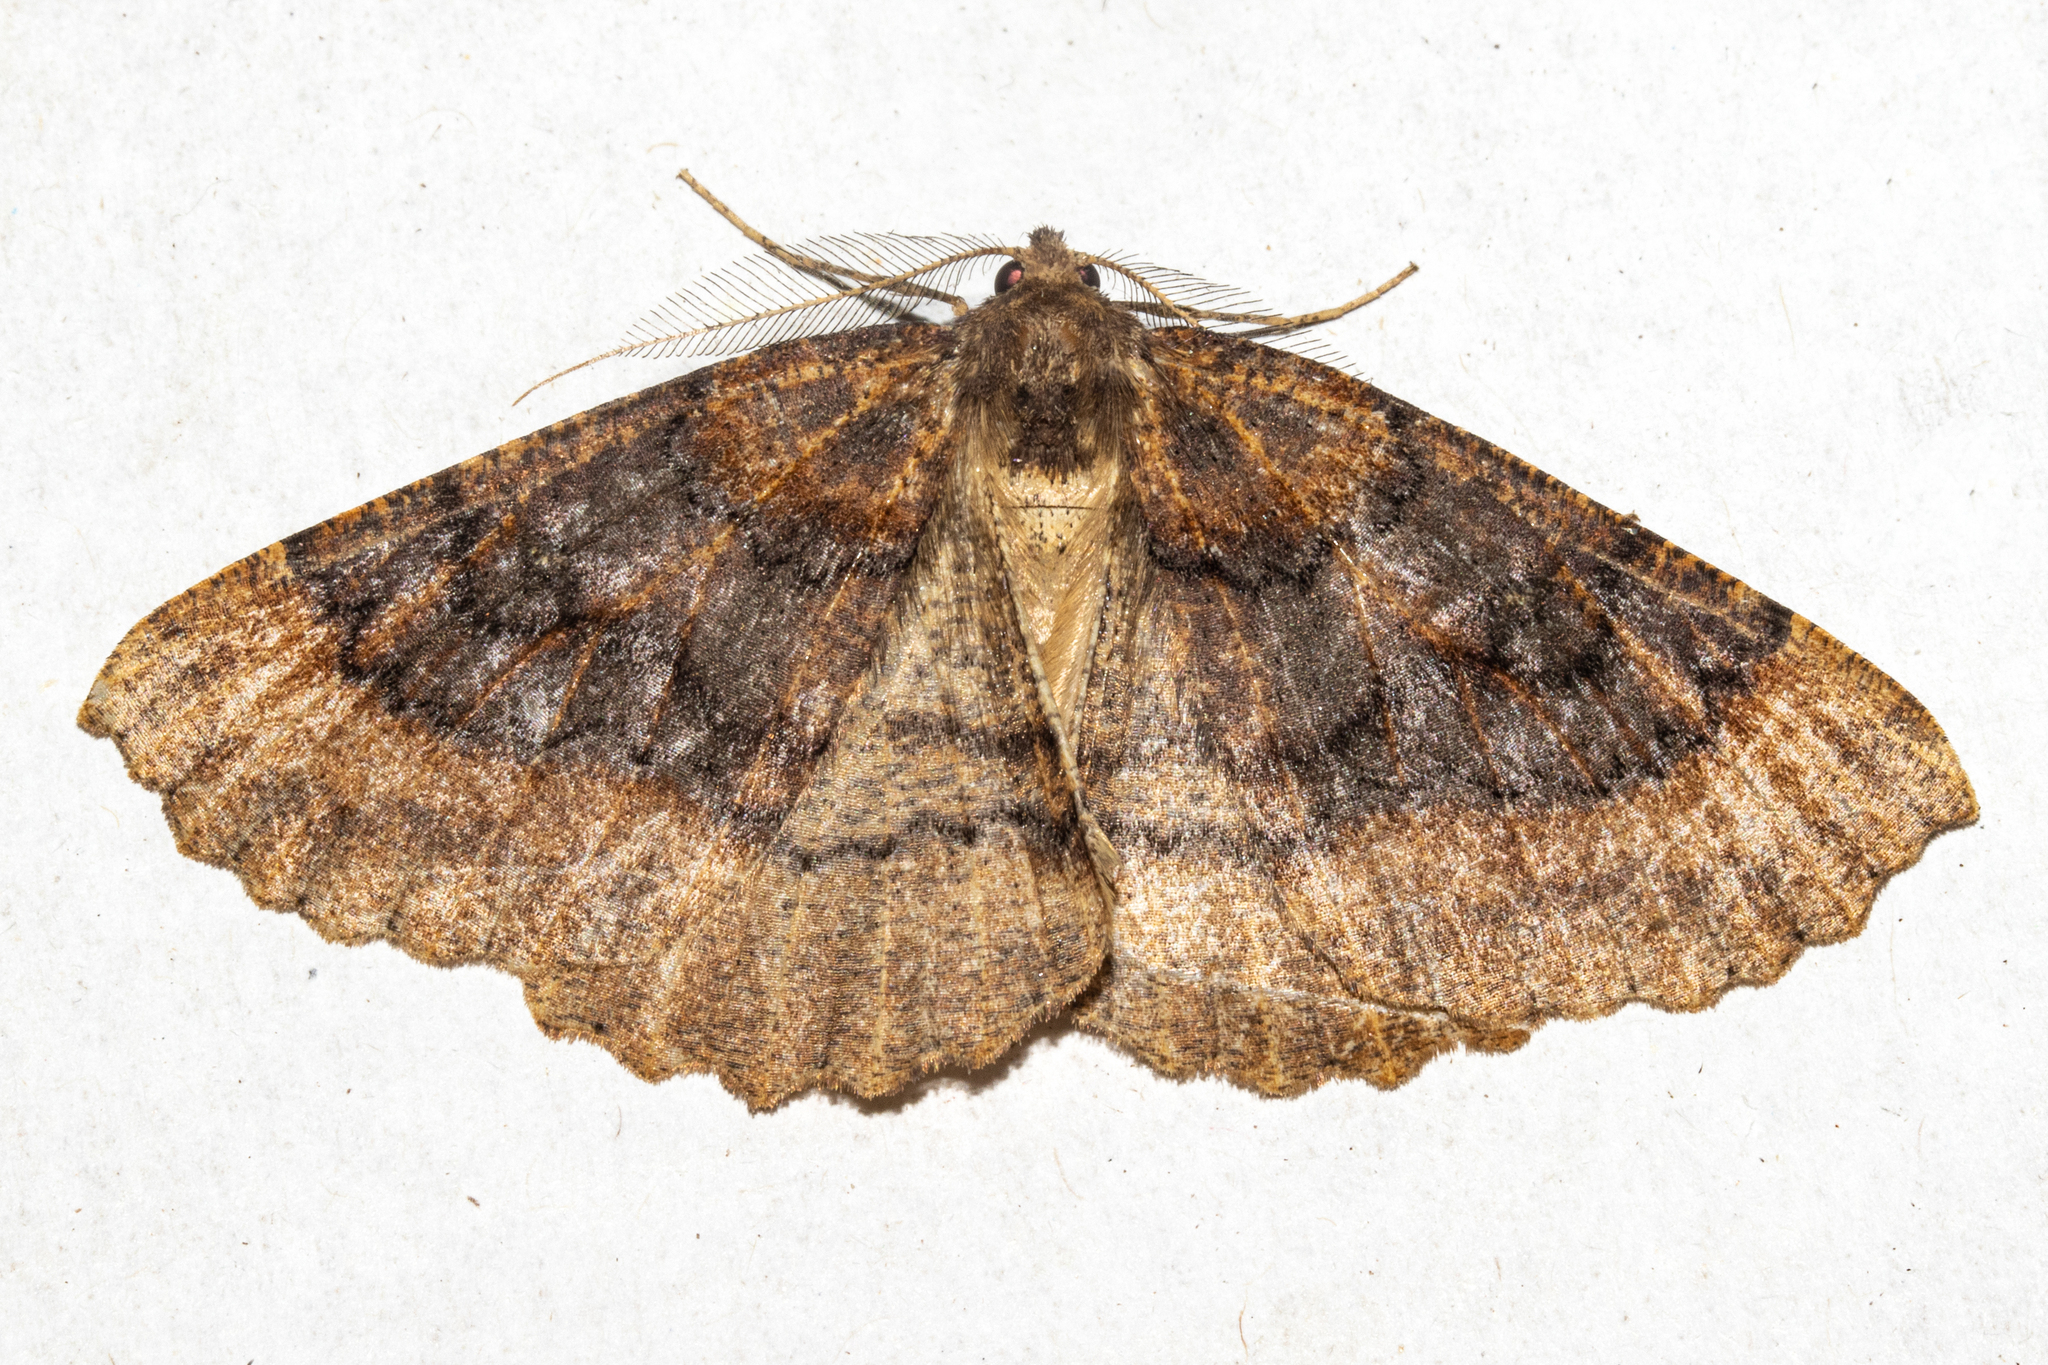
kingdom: Animalia
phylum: Arthropoda
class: Insecta
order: Lepidoptera
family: Geometridae
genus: Cleora
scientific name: Cleora scriptaria
